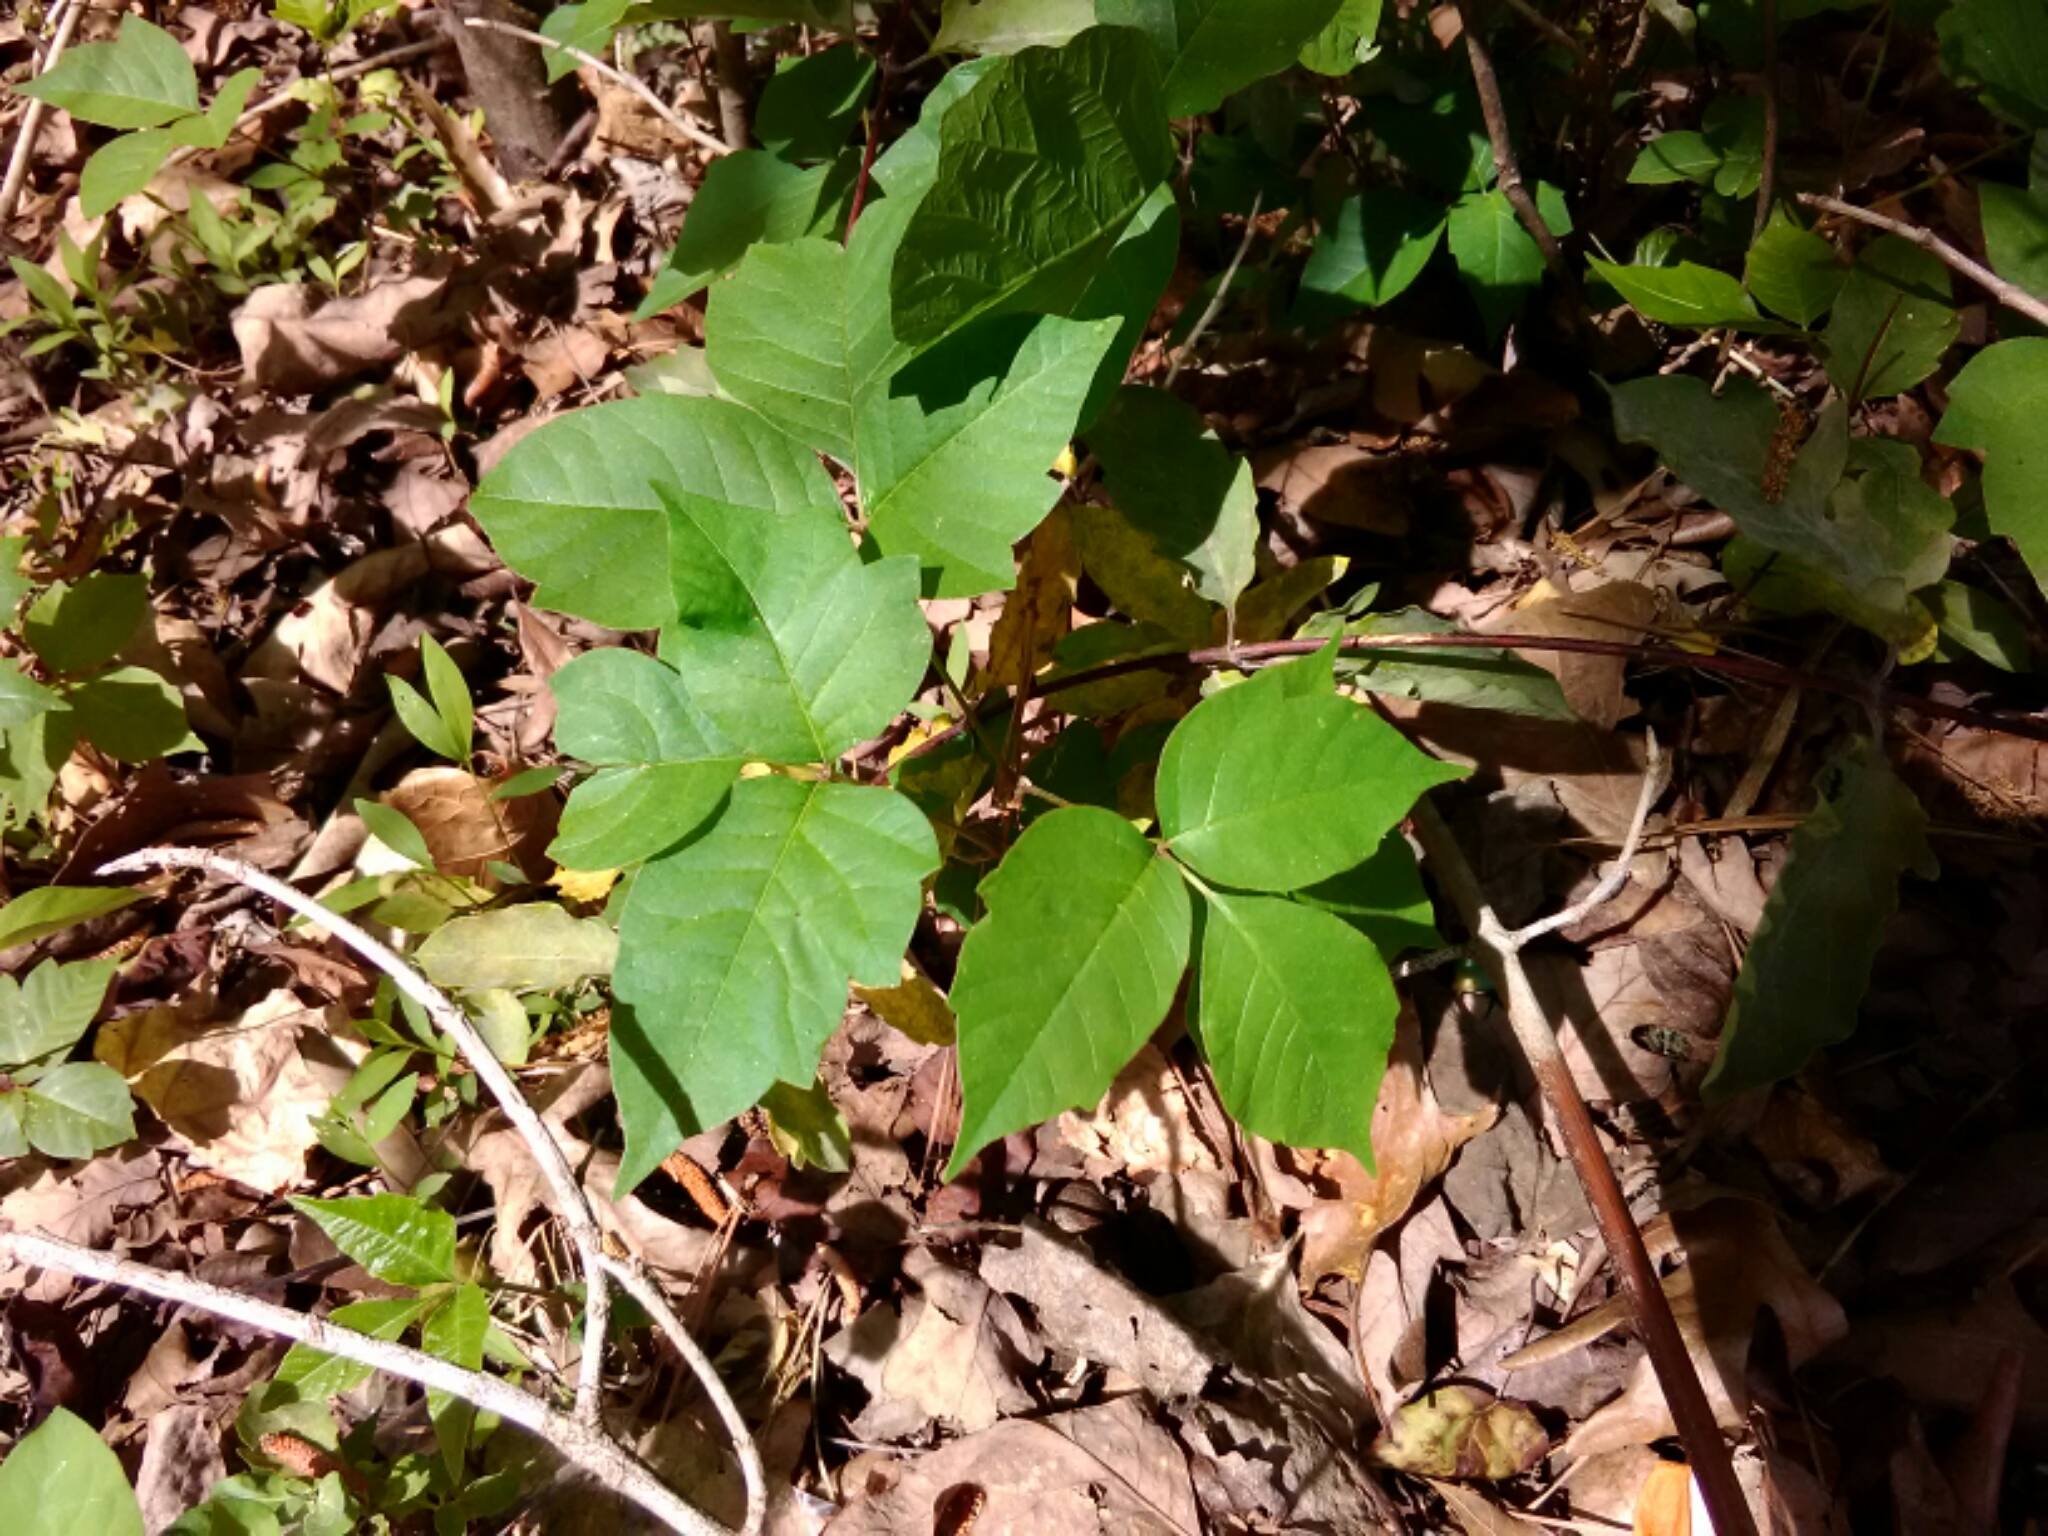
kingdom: Plantae
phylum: Tracheophyta
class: Magnoliopsida
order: Sapindales
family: Anacardiaceae
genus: Toxicodendron
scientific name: Toxicodendron radicans
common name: Poison ivy
